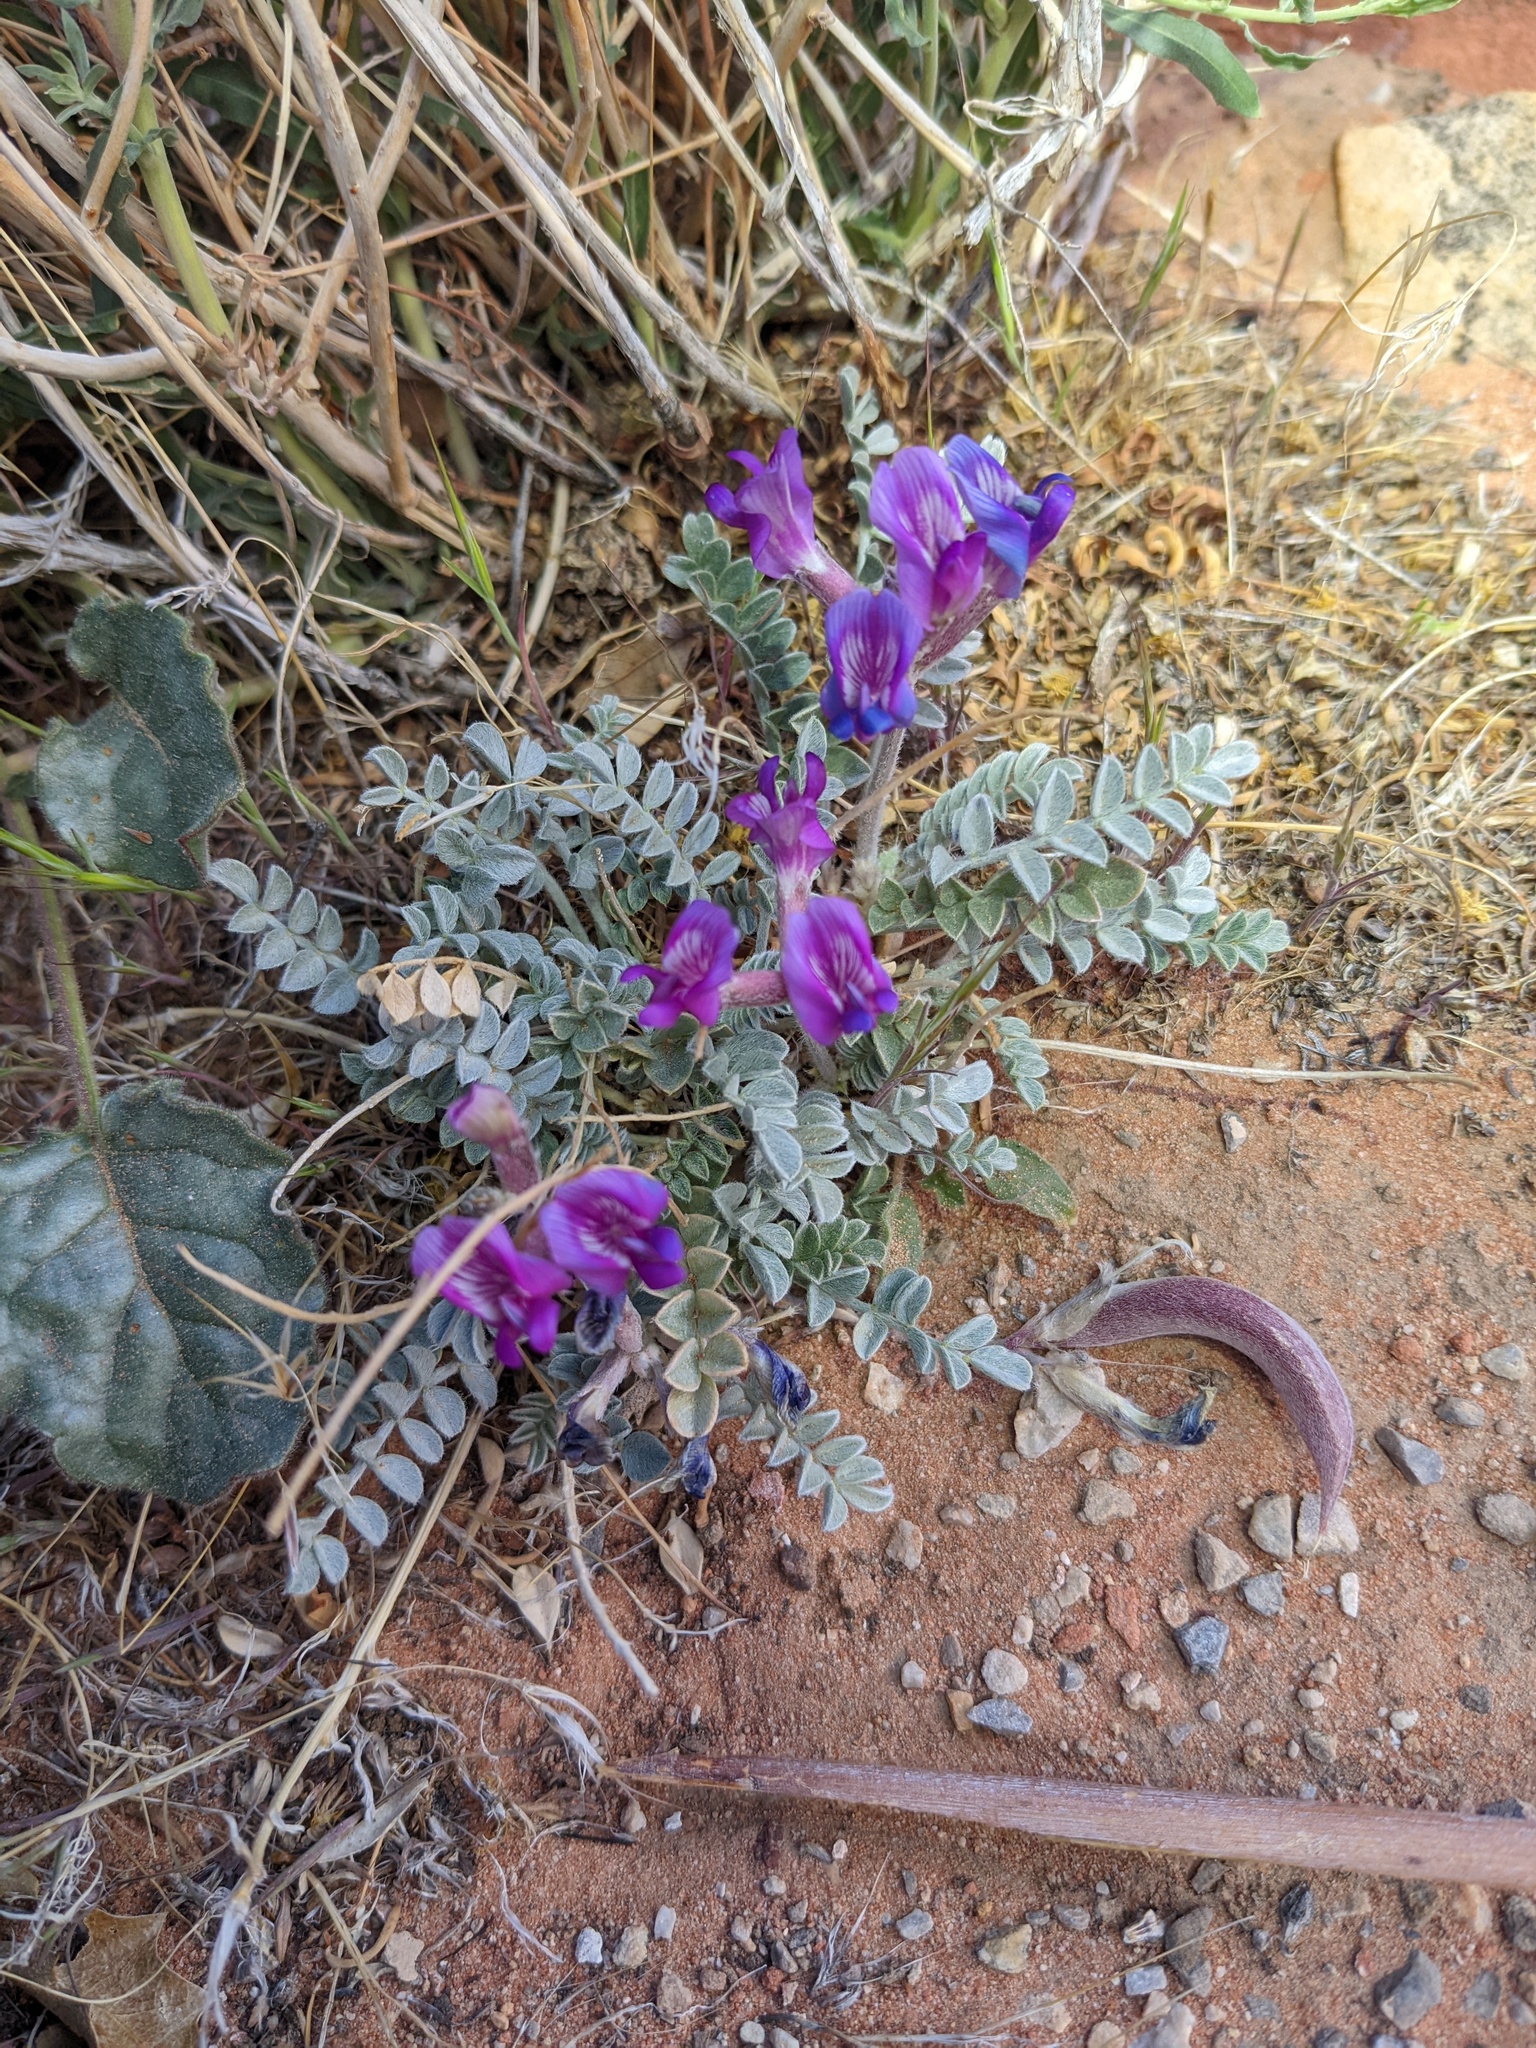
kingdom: Plantae
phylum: Tracheophyta
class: Magnoliopsida
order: Fabales
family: Fabaceae
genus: Astragalus
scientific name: Astragalus amphioxys
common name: Crescent milk-vetch
